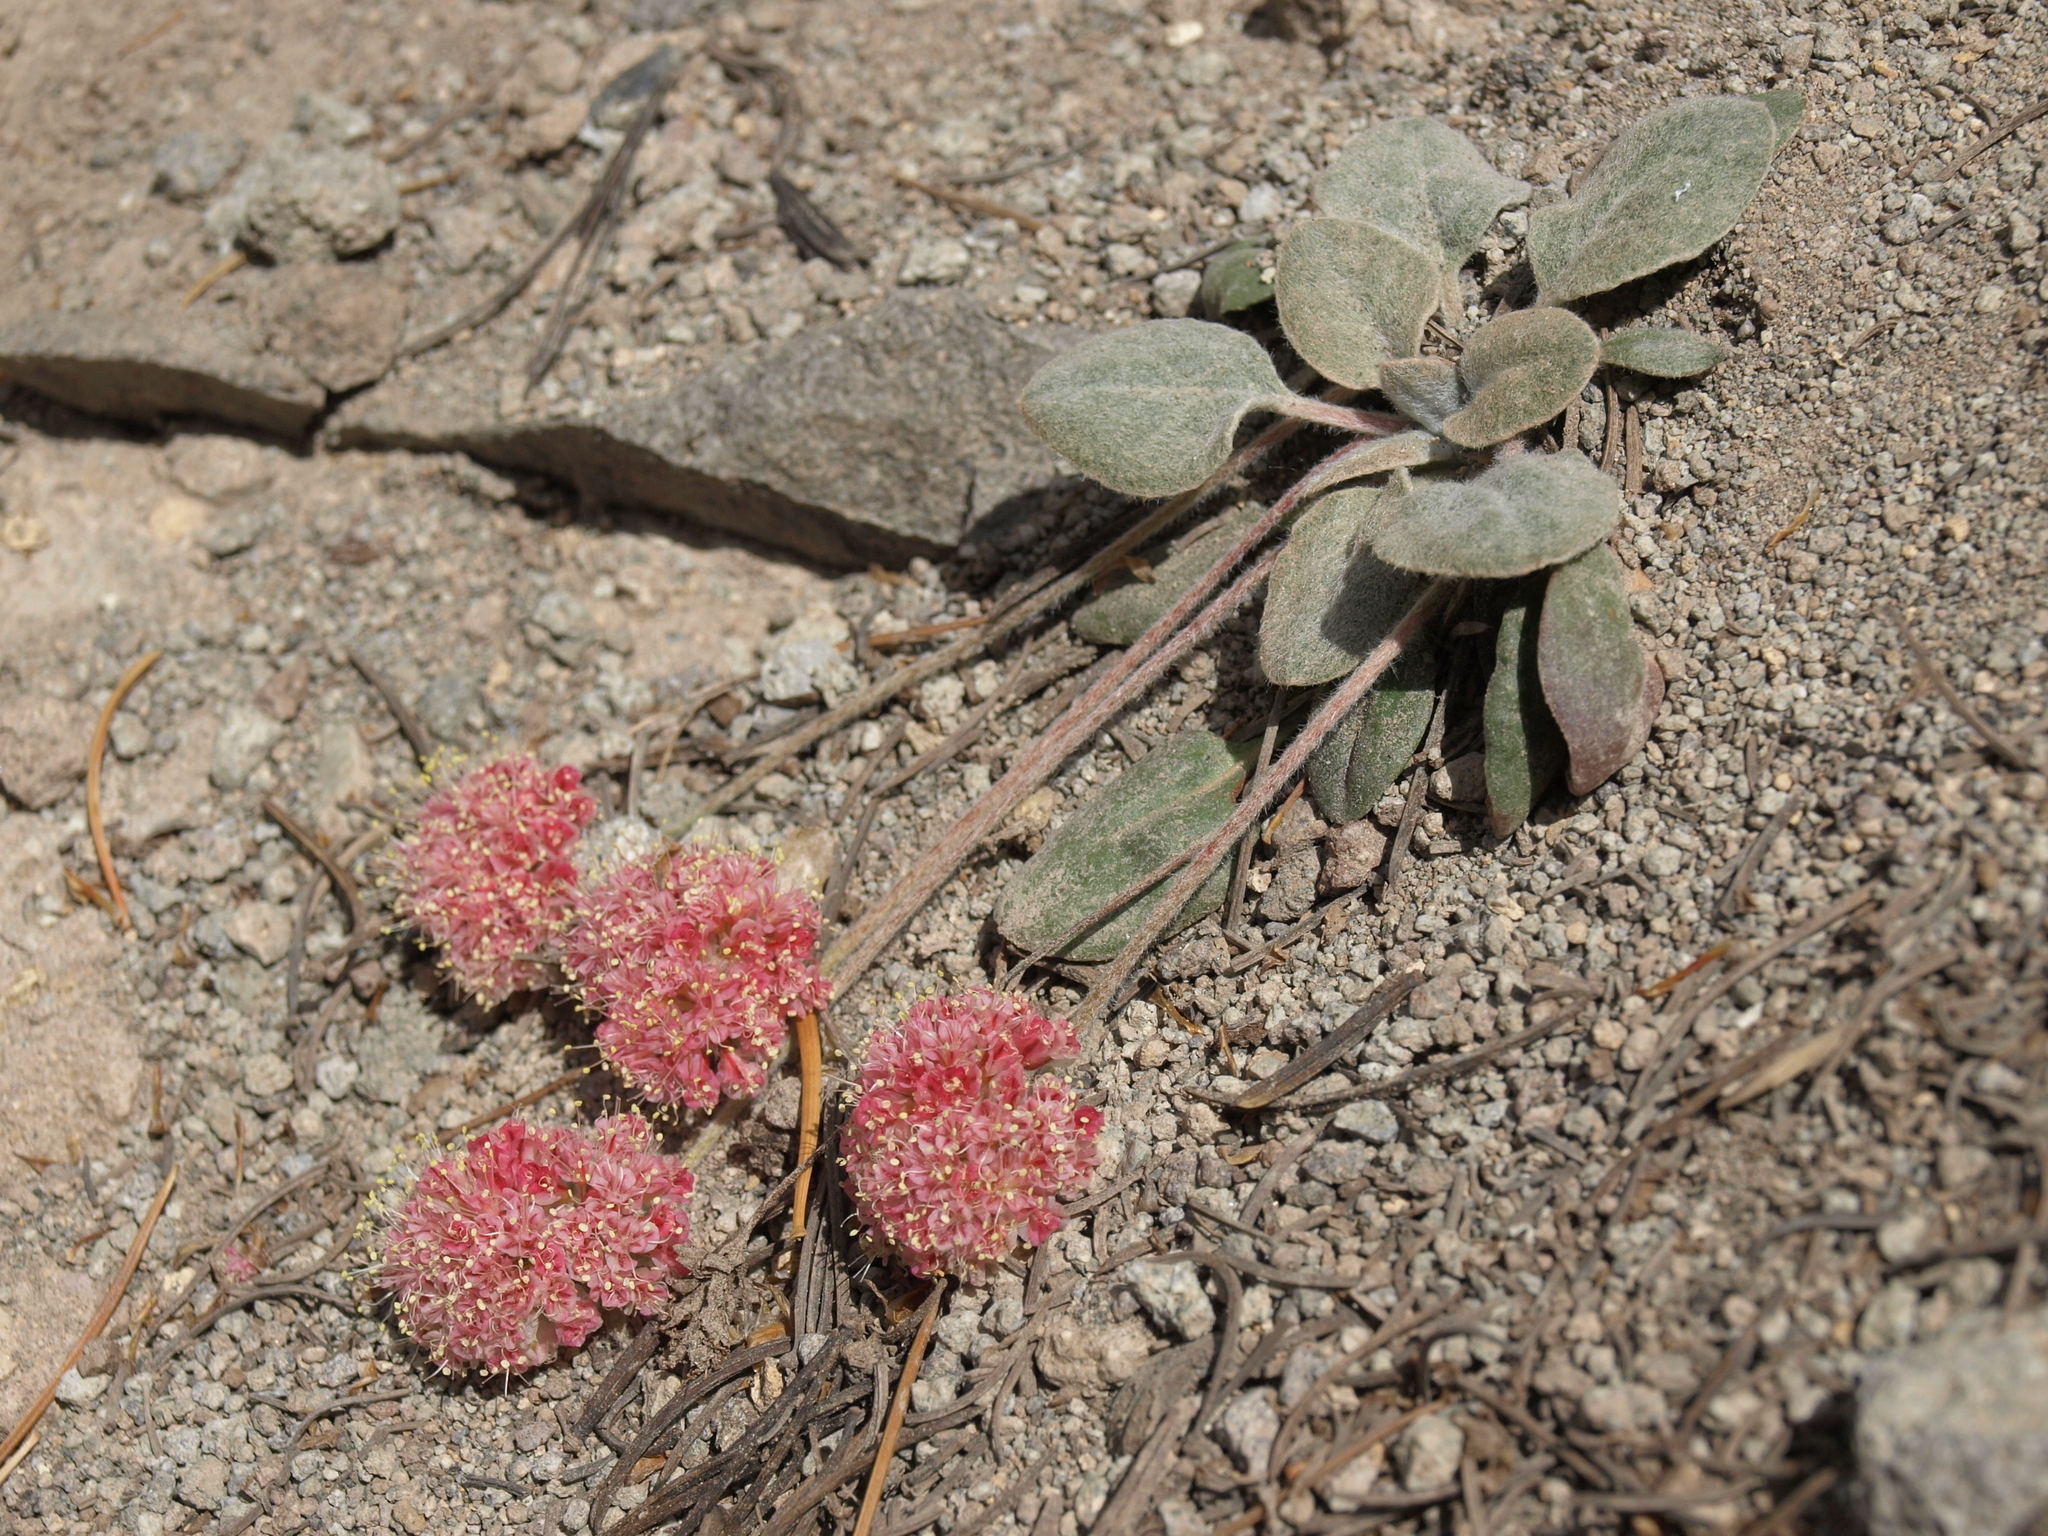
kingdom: Plantae
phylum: Tracheophyta
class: Magnoliopsida
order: Caryophyllales
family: Polygonaceae
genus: Eriogonum
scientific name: Eriogonum lobbii
